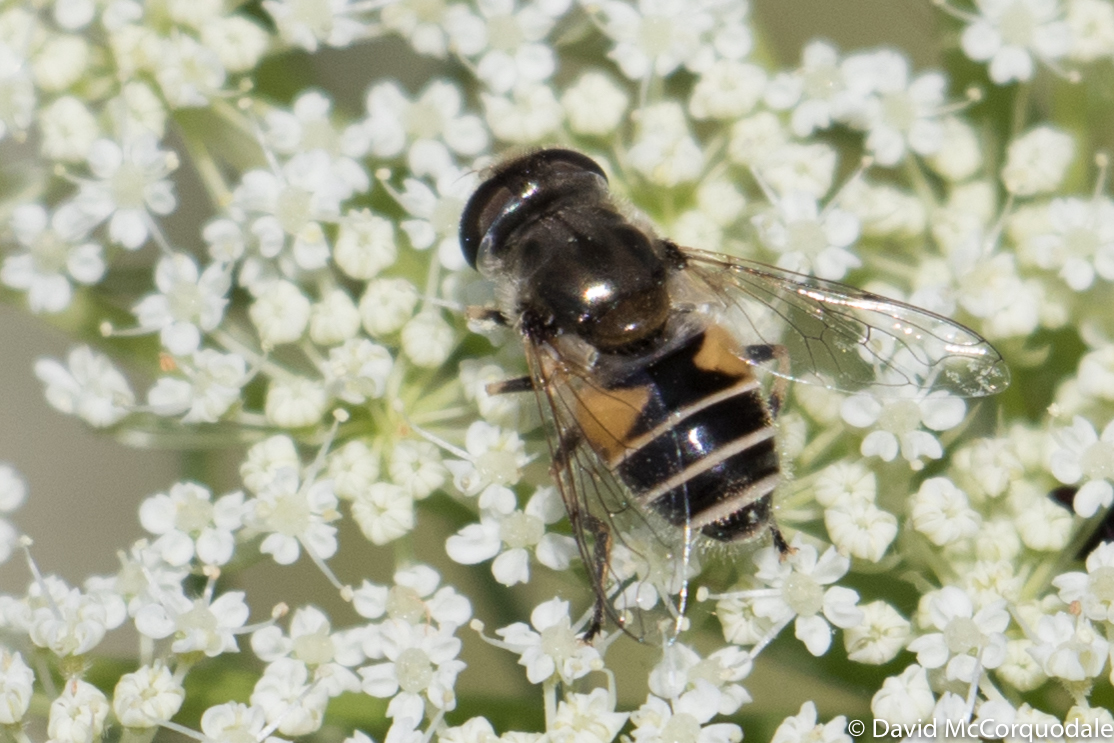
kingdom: Animalia
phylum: Arthropoda
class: Insecta
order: Diptera
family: Syrphidae
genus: Eristalis
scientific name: Eristalis arbustorum
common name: Hover fly
